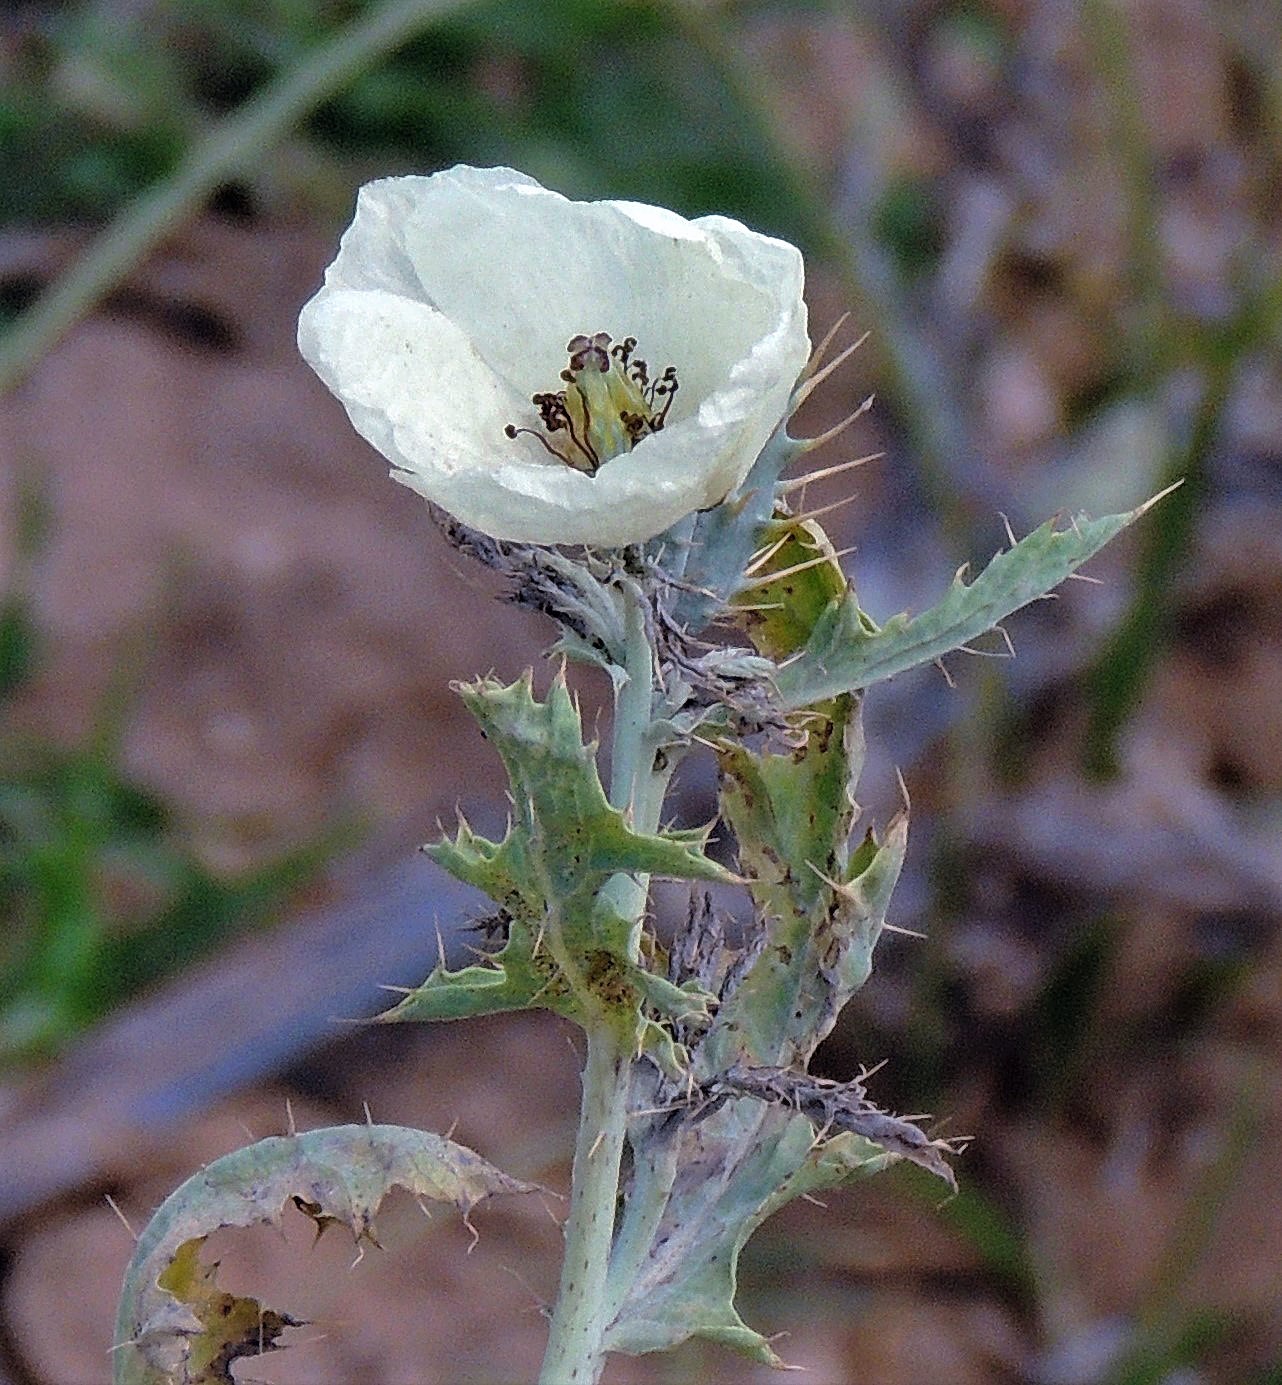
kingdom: Plantae
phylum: Tracheophyta
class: Magnoliopsida
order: Ranunculales
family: Papaveraceae
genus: Argemone
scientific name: Argemone subfusiformis
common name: American-poppy
